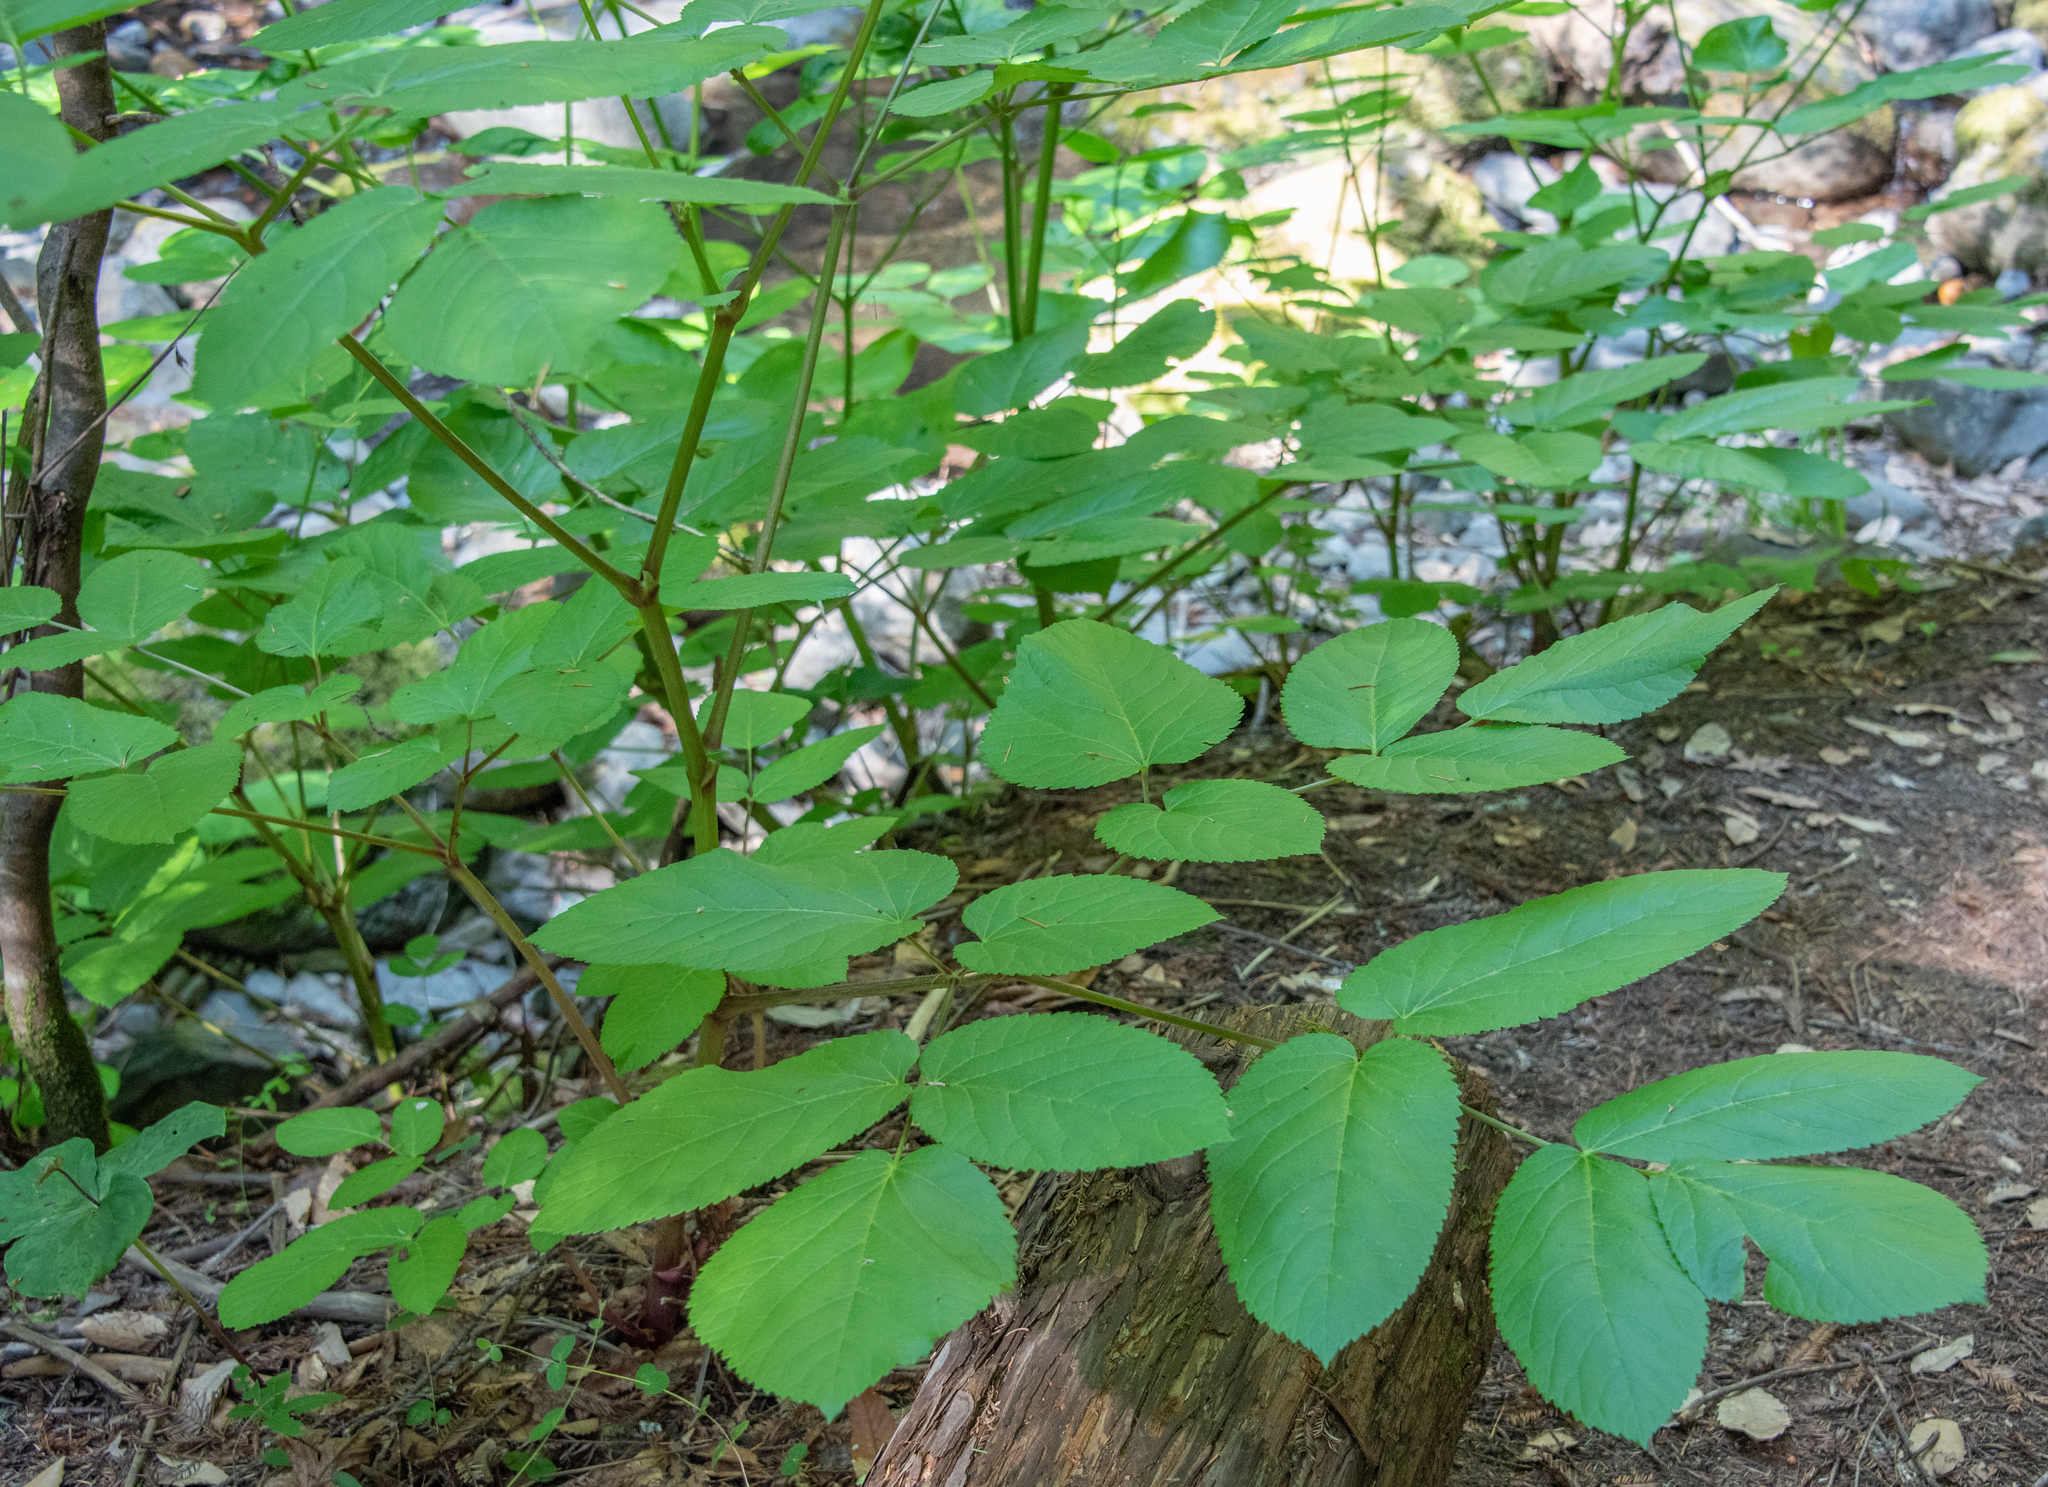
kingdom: Plantae
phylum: Tracheophyta
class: Magnoliopsida
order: Apiales
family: Araliaceae
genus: Aralia
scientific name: Aralia californica
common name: California-ginseng
